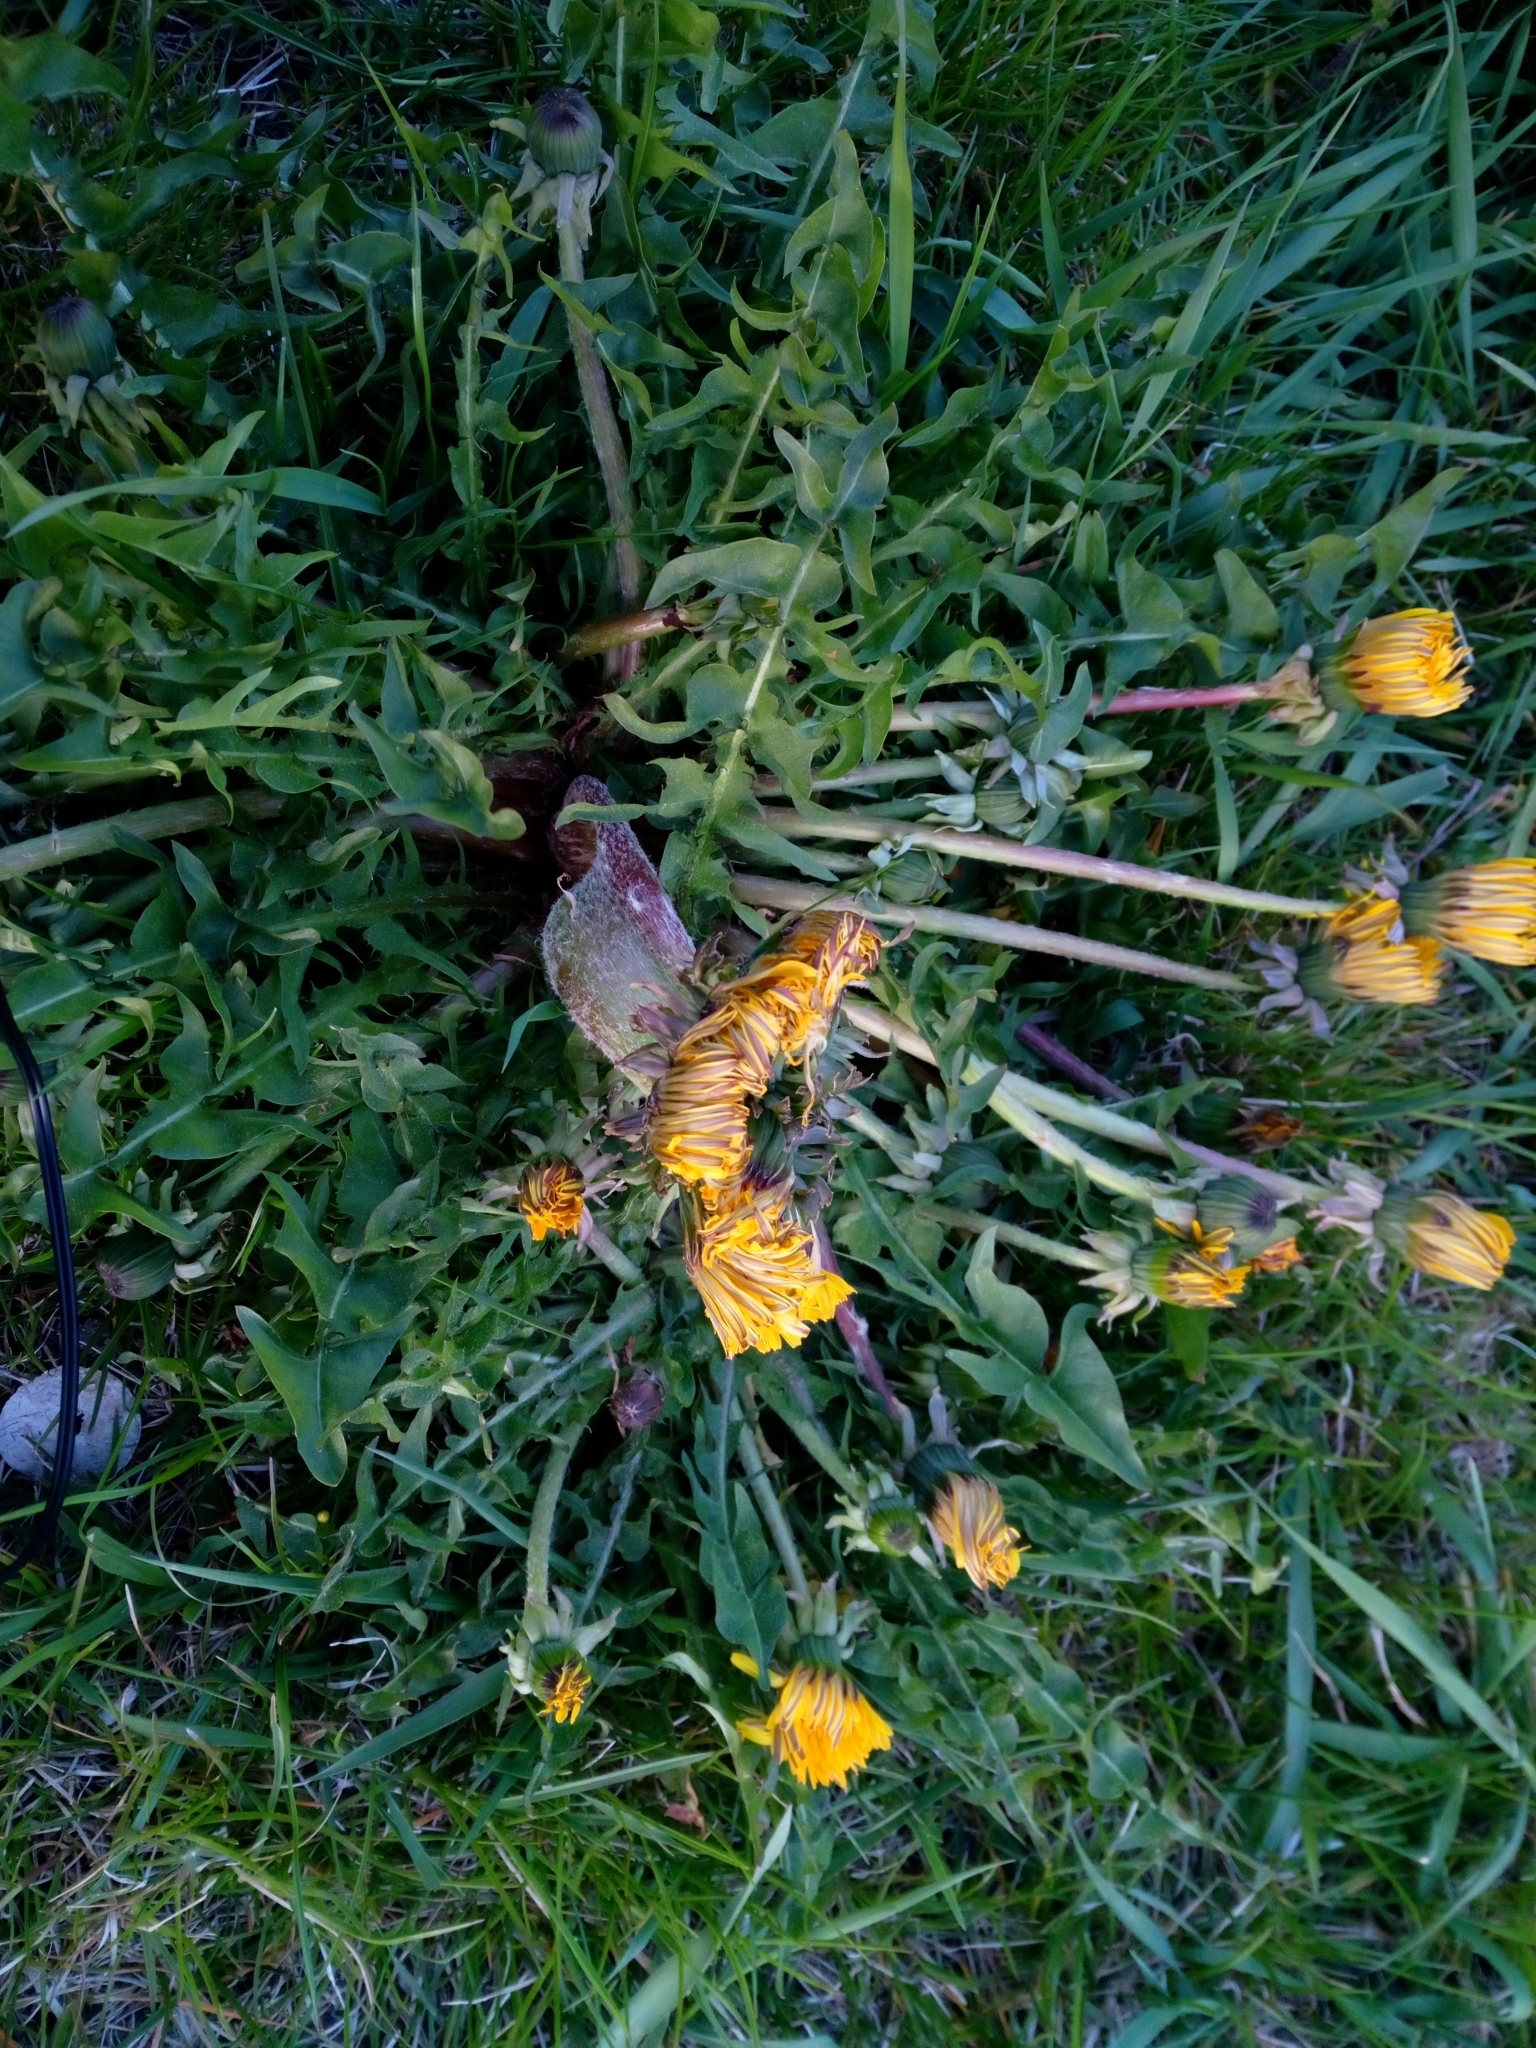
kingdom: Plantae
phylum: Tracheophyta
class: Magnoliopsida
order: Asterales
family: Asteraceae
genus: Taraxacum
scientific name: Taraxacum
